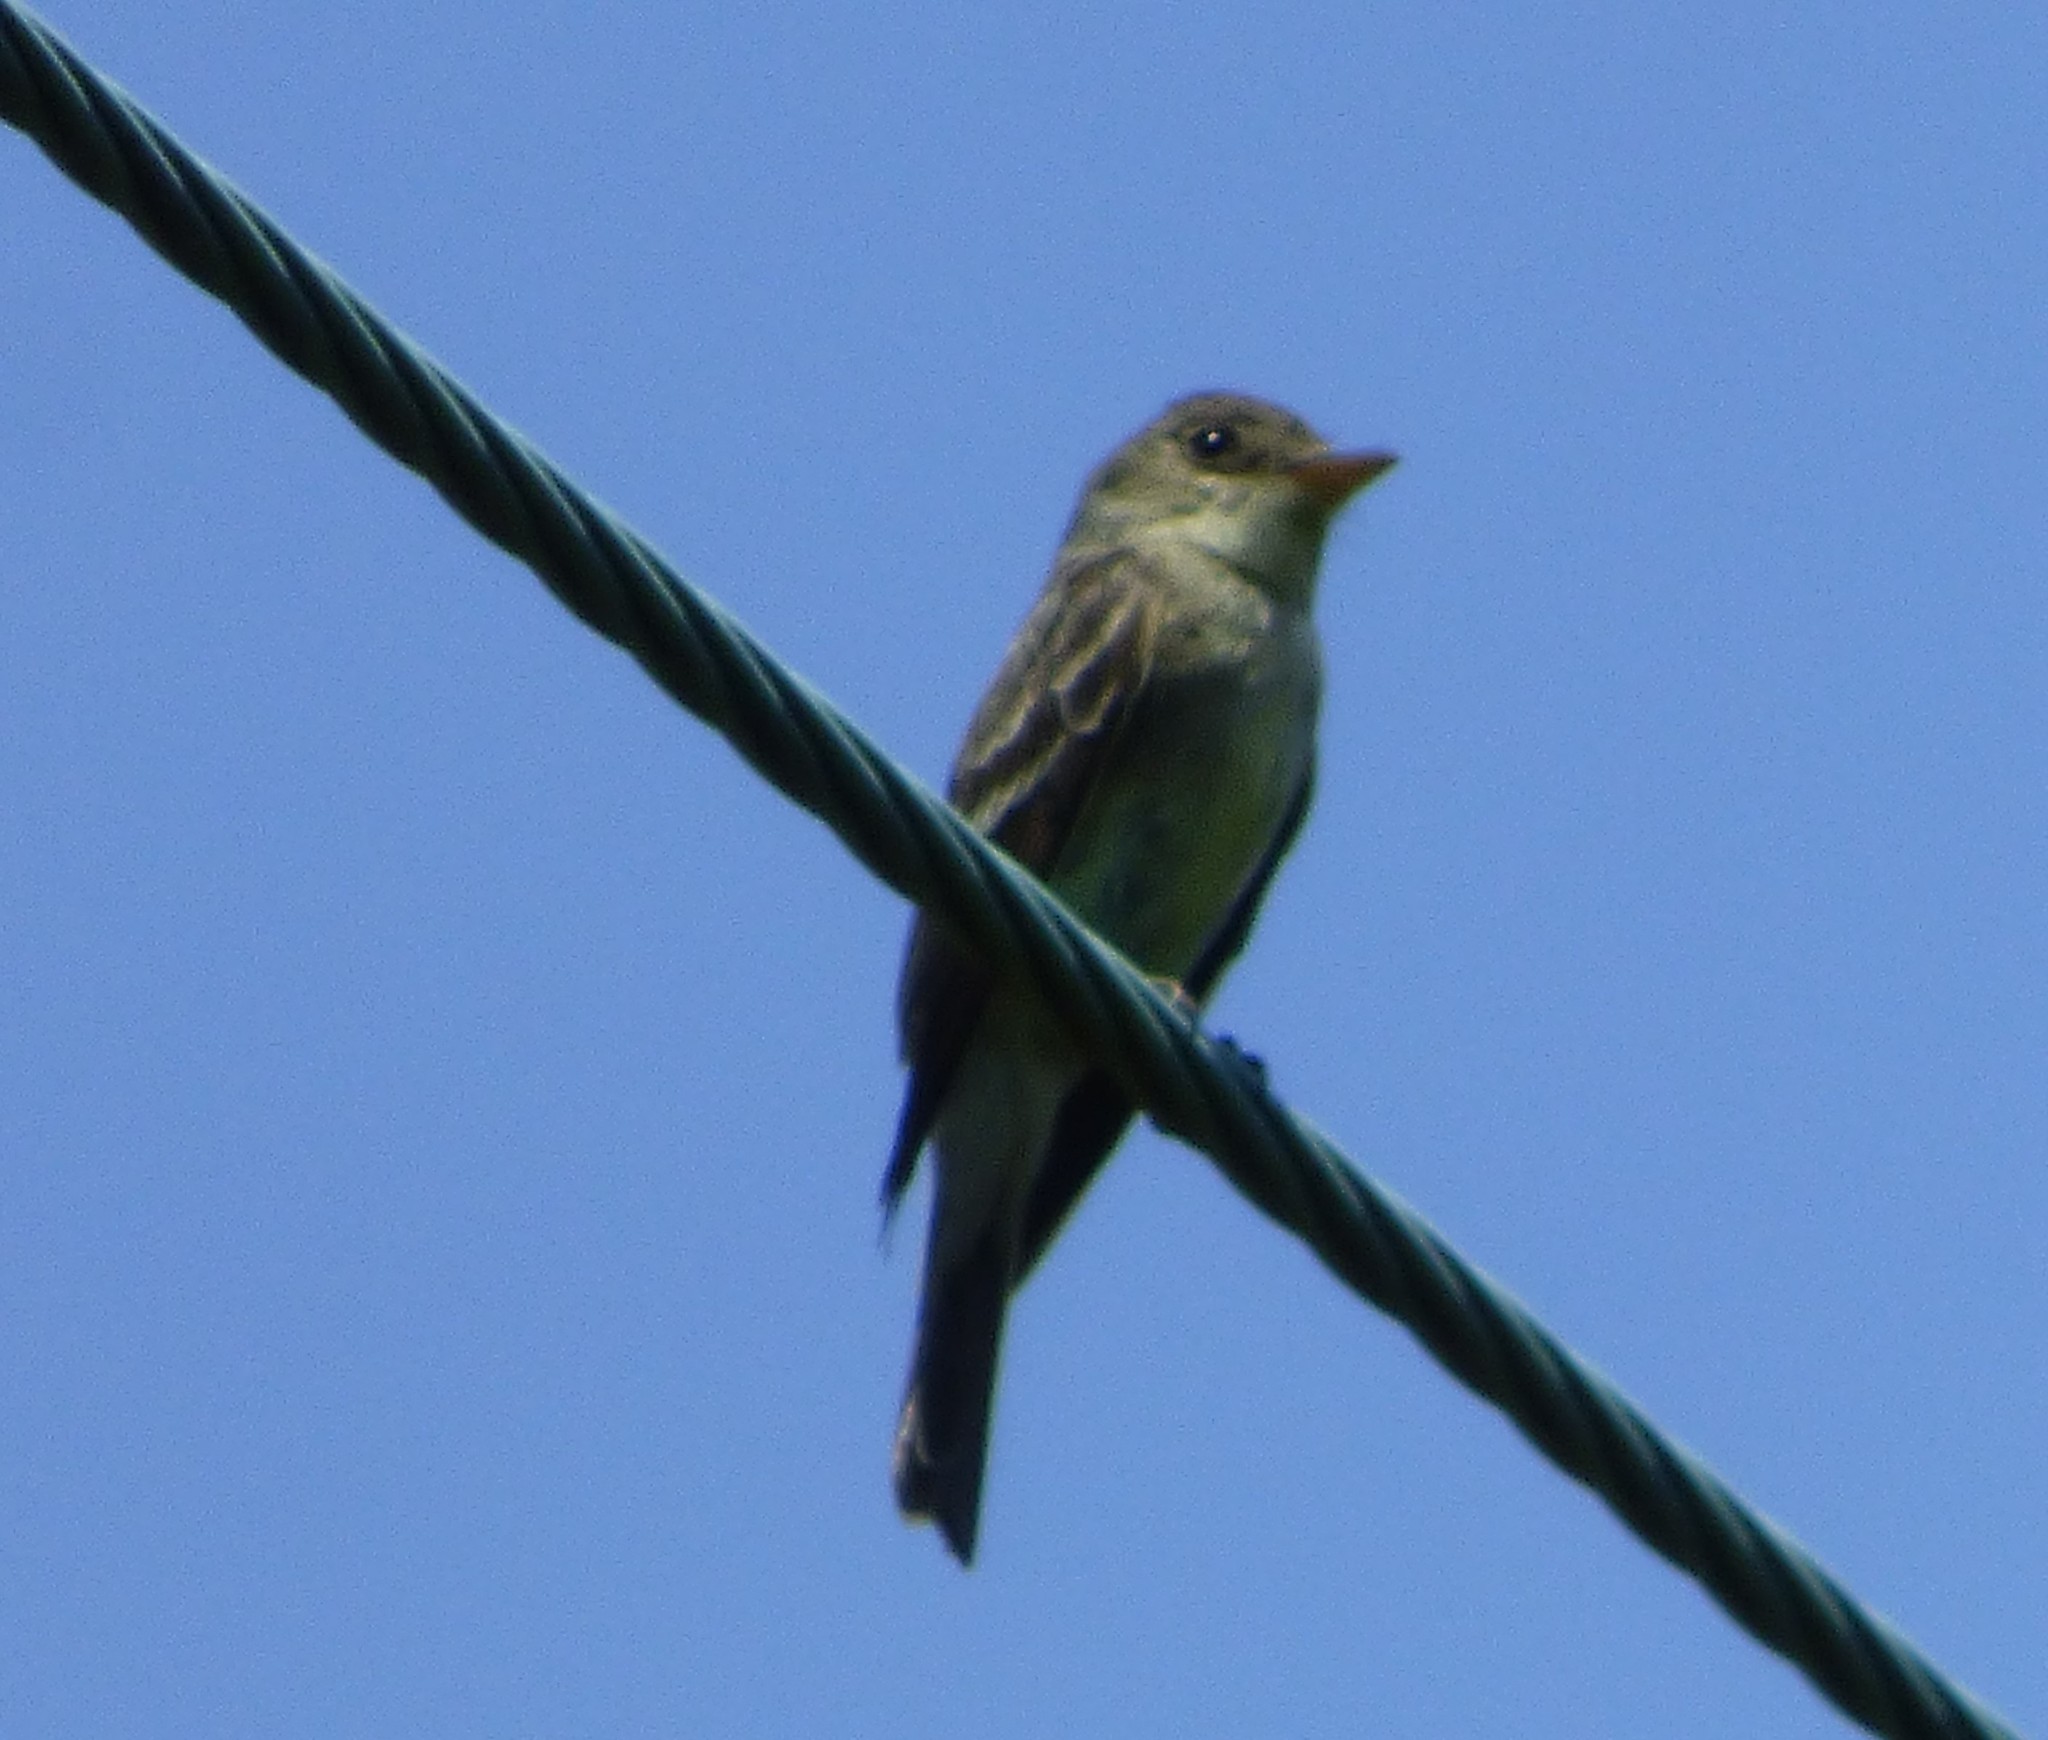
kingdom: Animalia
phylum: Chordata
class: Aves
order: Passeriformes
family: Tyrannidae
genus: Contopus
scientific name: Contopus virens
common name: Eastern wood-pewee
